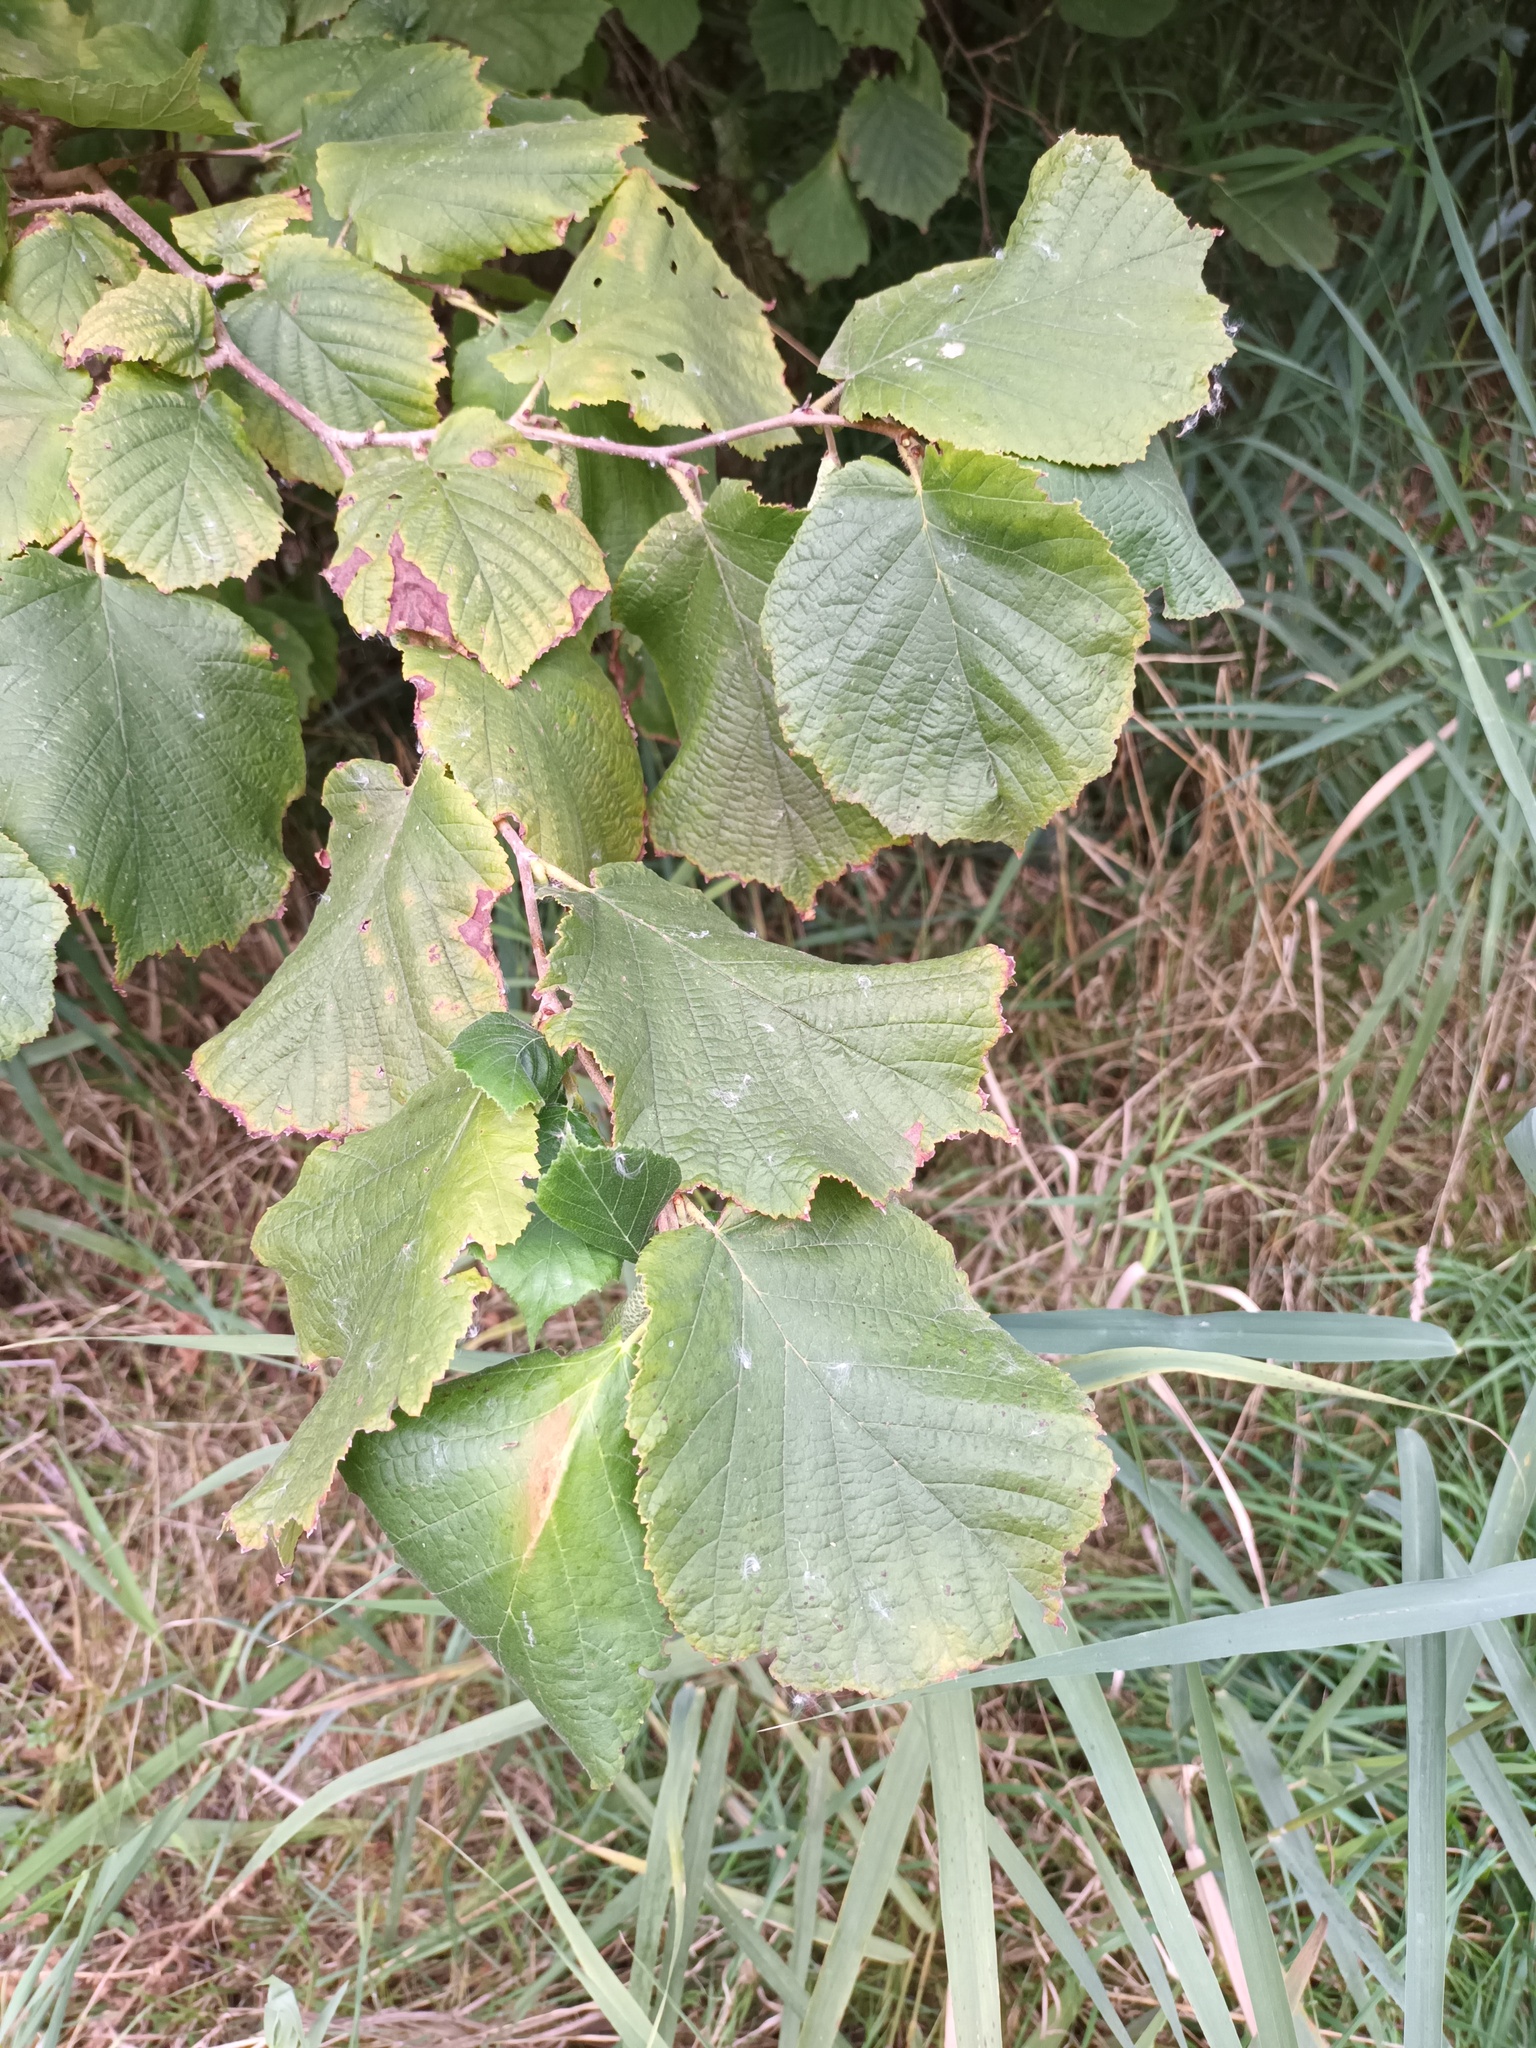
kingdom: Plantae
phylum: Tracheophyta
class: Magnoliopsida
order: Fagales
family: Betulaceae
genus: Corylus
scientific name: Corylus avellana
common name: European hazel
